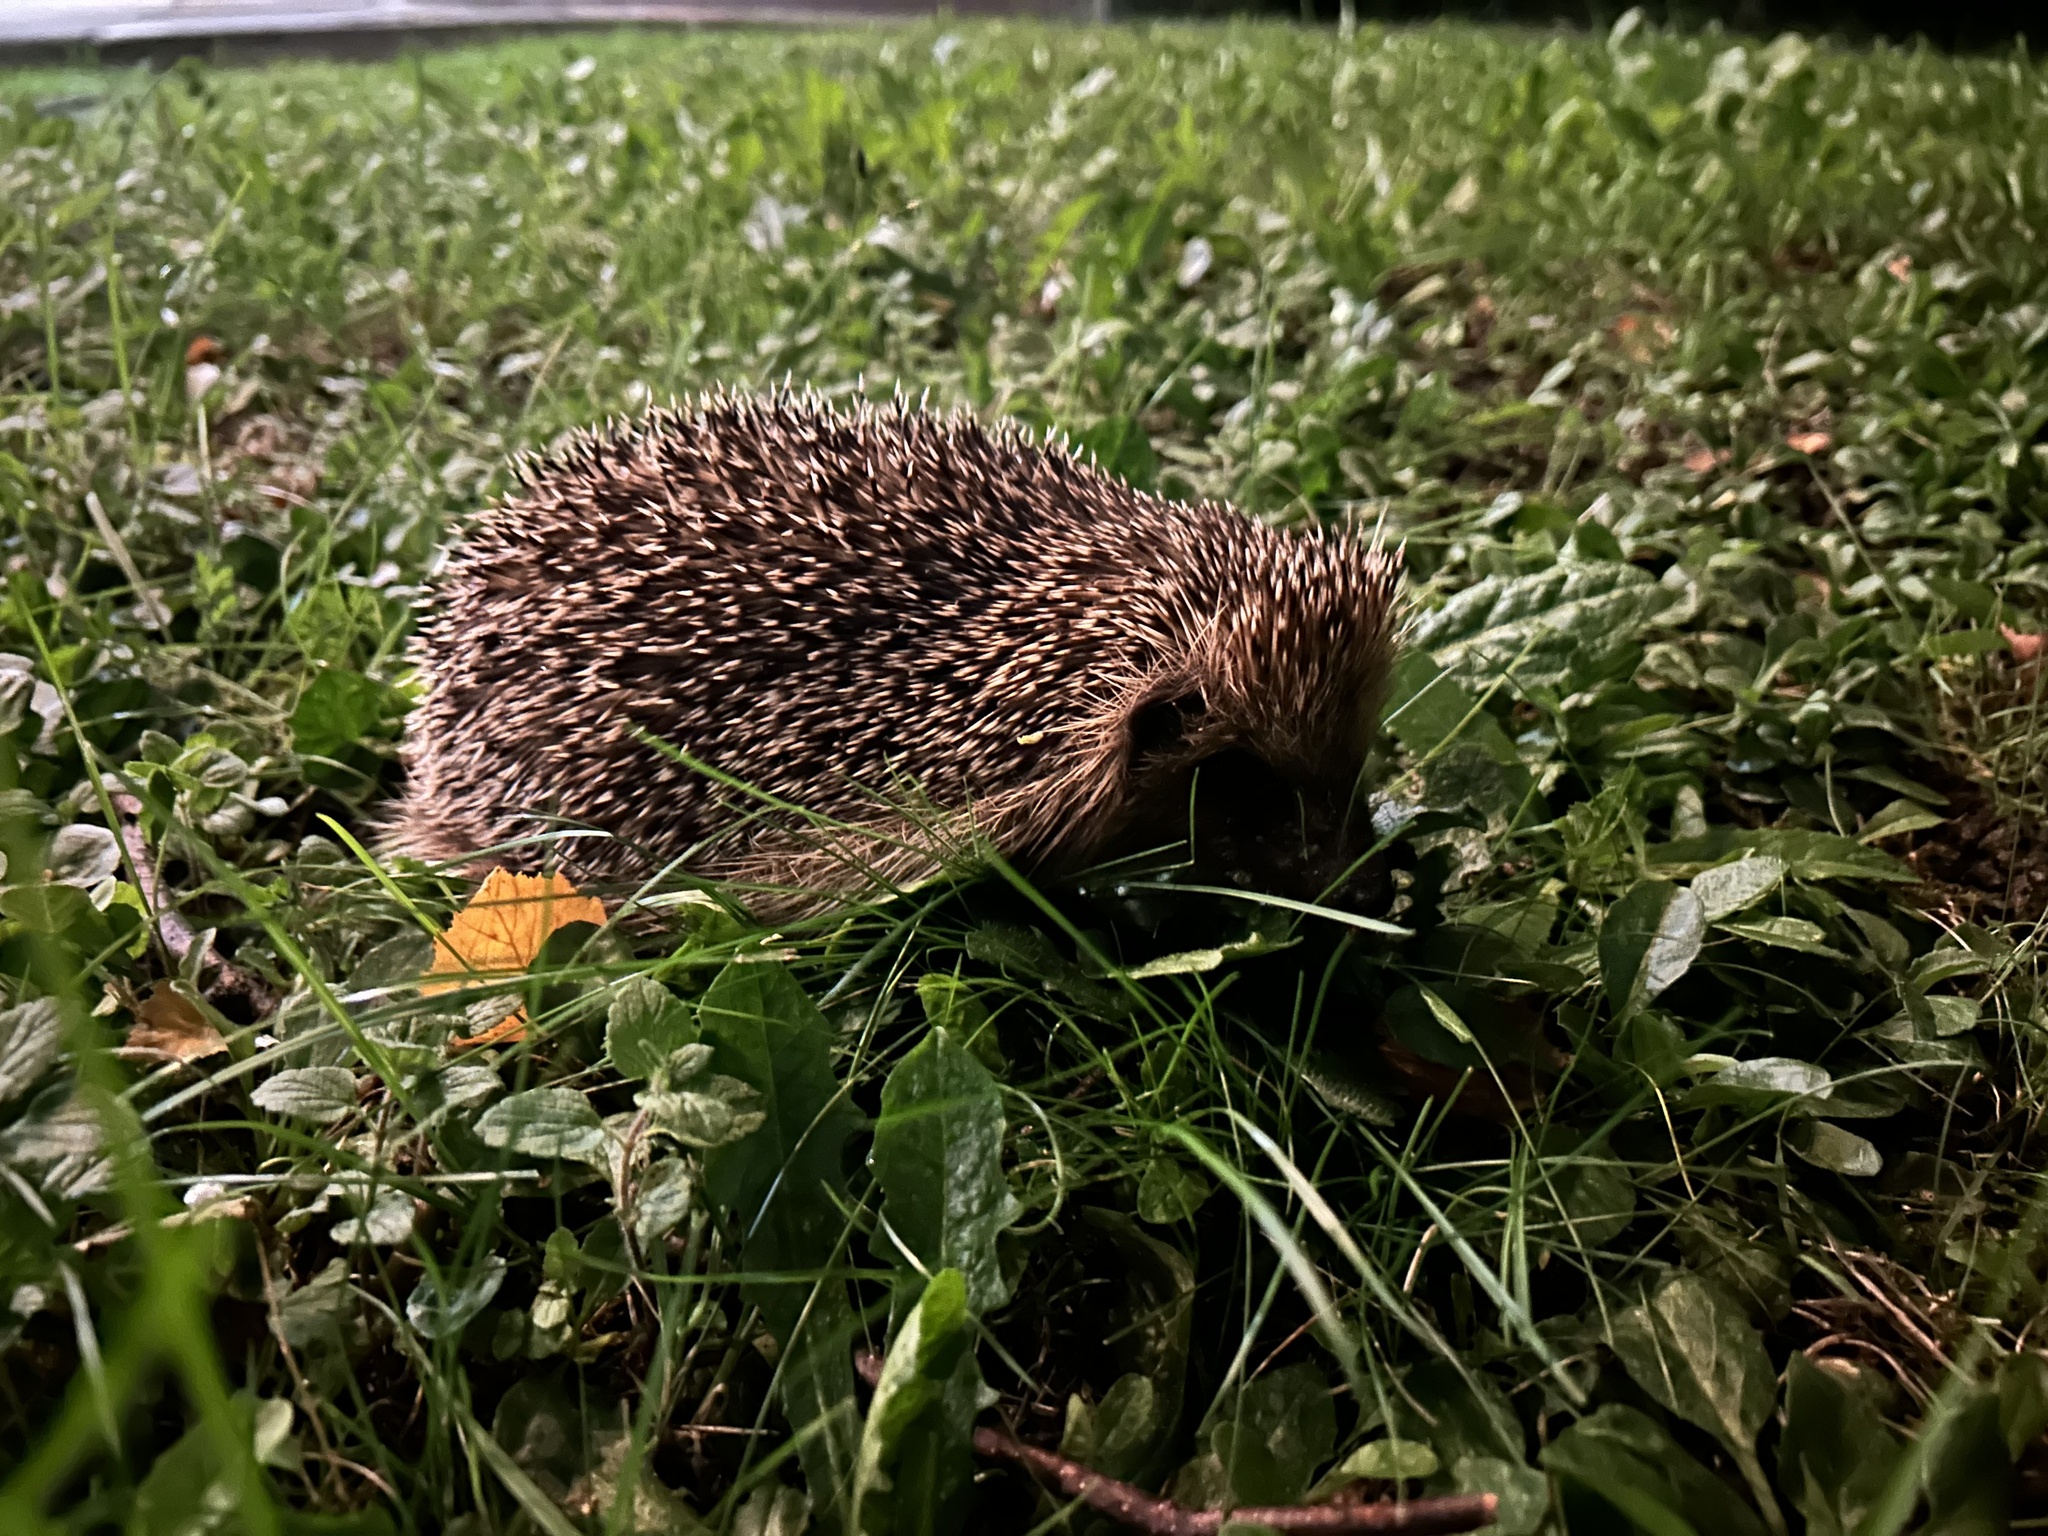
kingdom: Animalia
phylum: Chordata
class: Mammalia
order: Erinaceomorpha
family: Erinaceidae
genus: Erinaceus
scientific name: Erinaceus europaeus
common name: West european hedgehog
